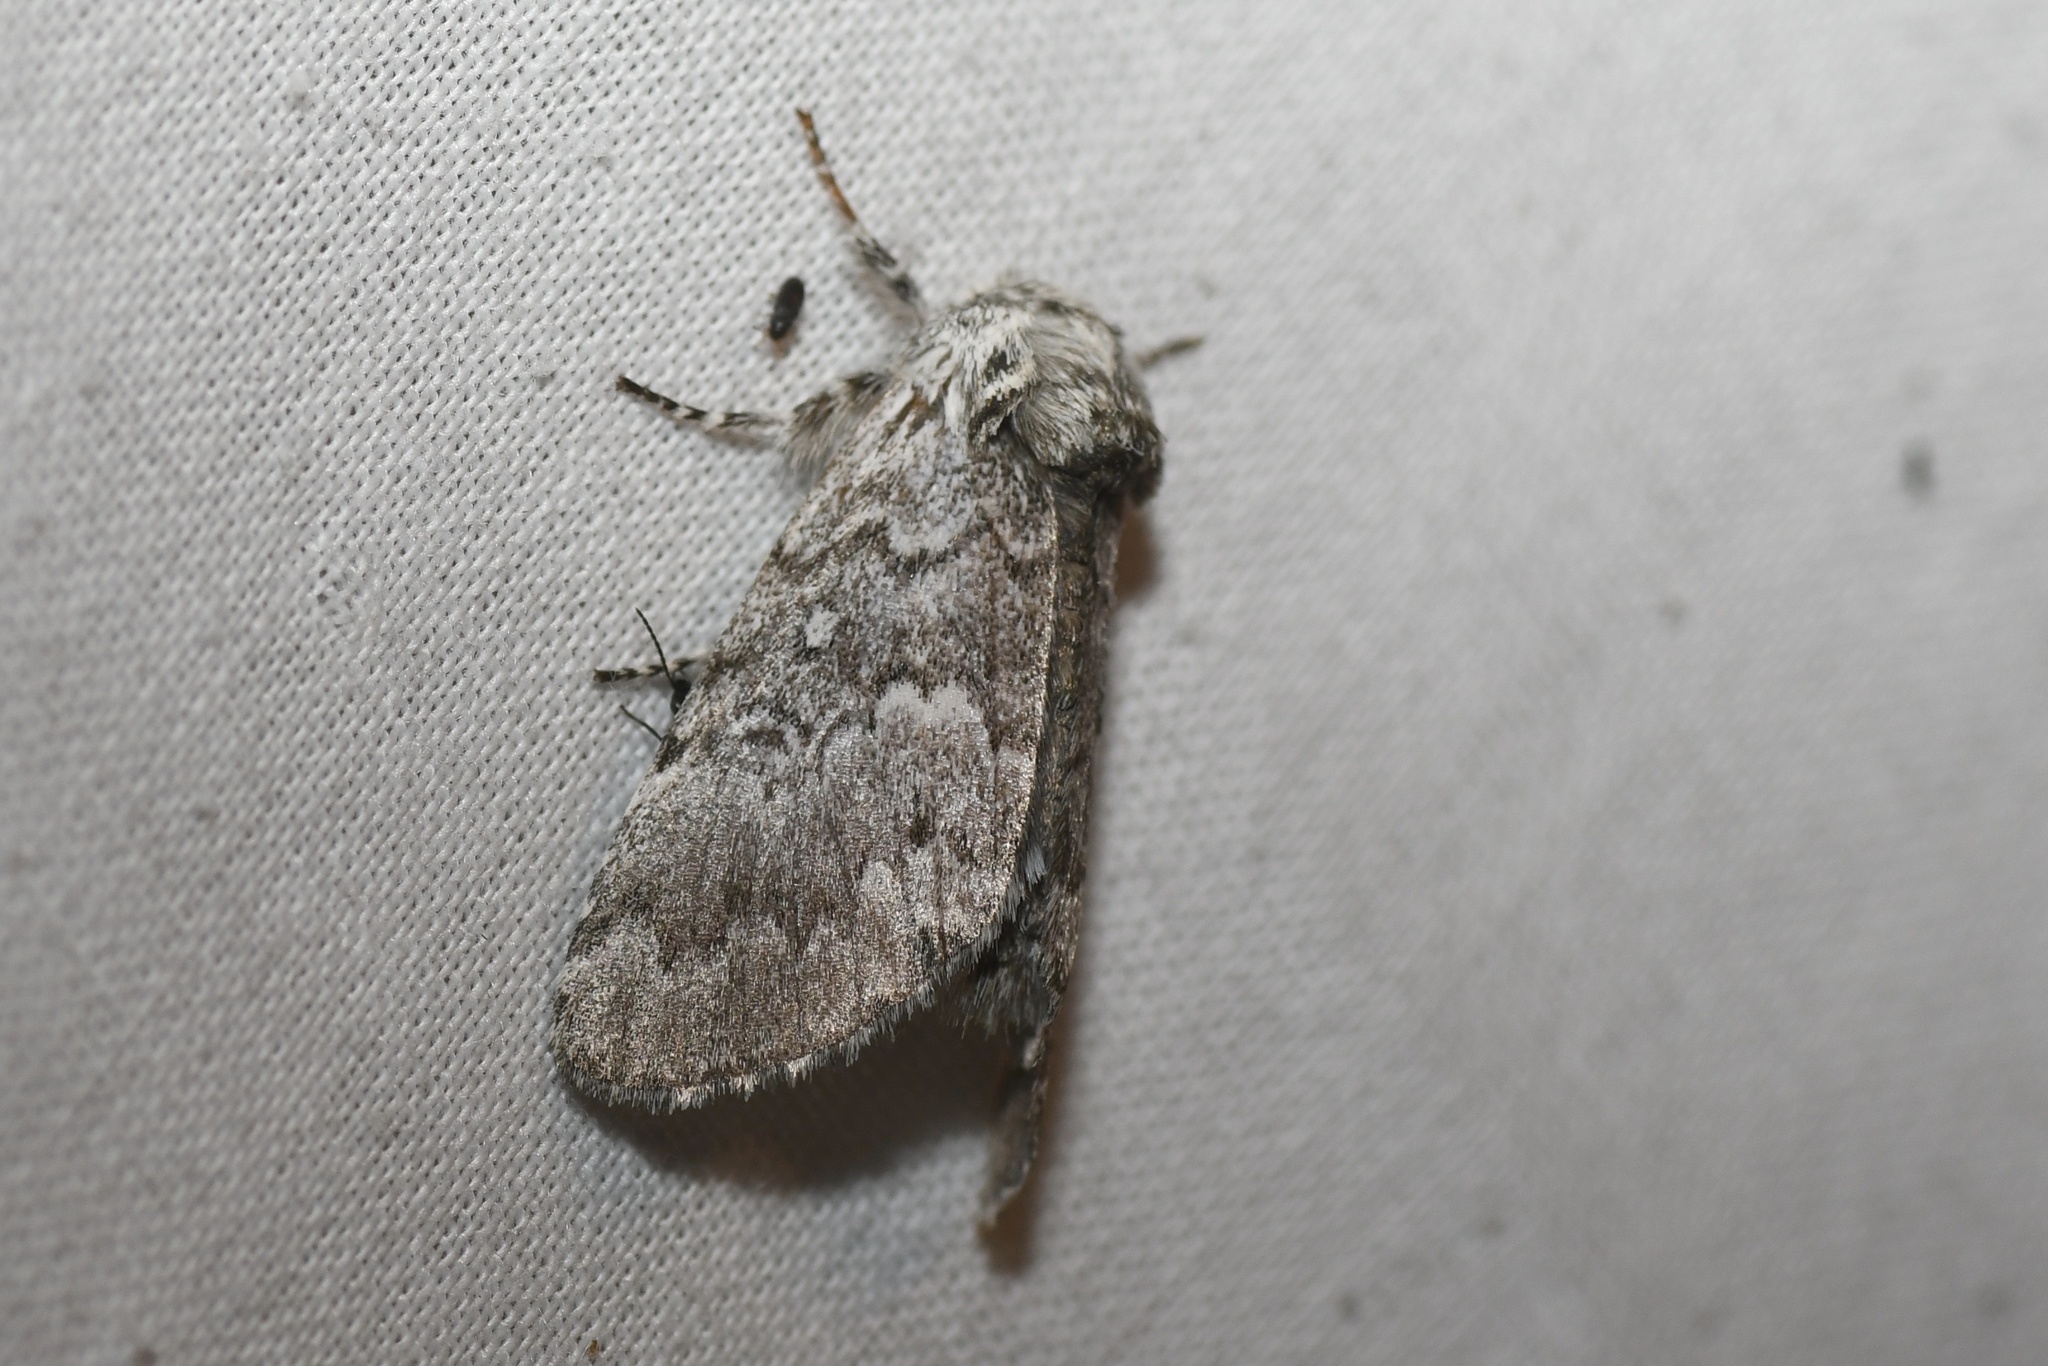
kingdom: Animalia
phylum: Arthropoda
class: Insecta
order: Lepidoptera
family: Noctuidae
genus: Colocasia
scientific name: Colocasia propinquilinea
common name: Close-banded demas
